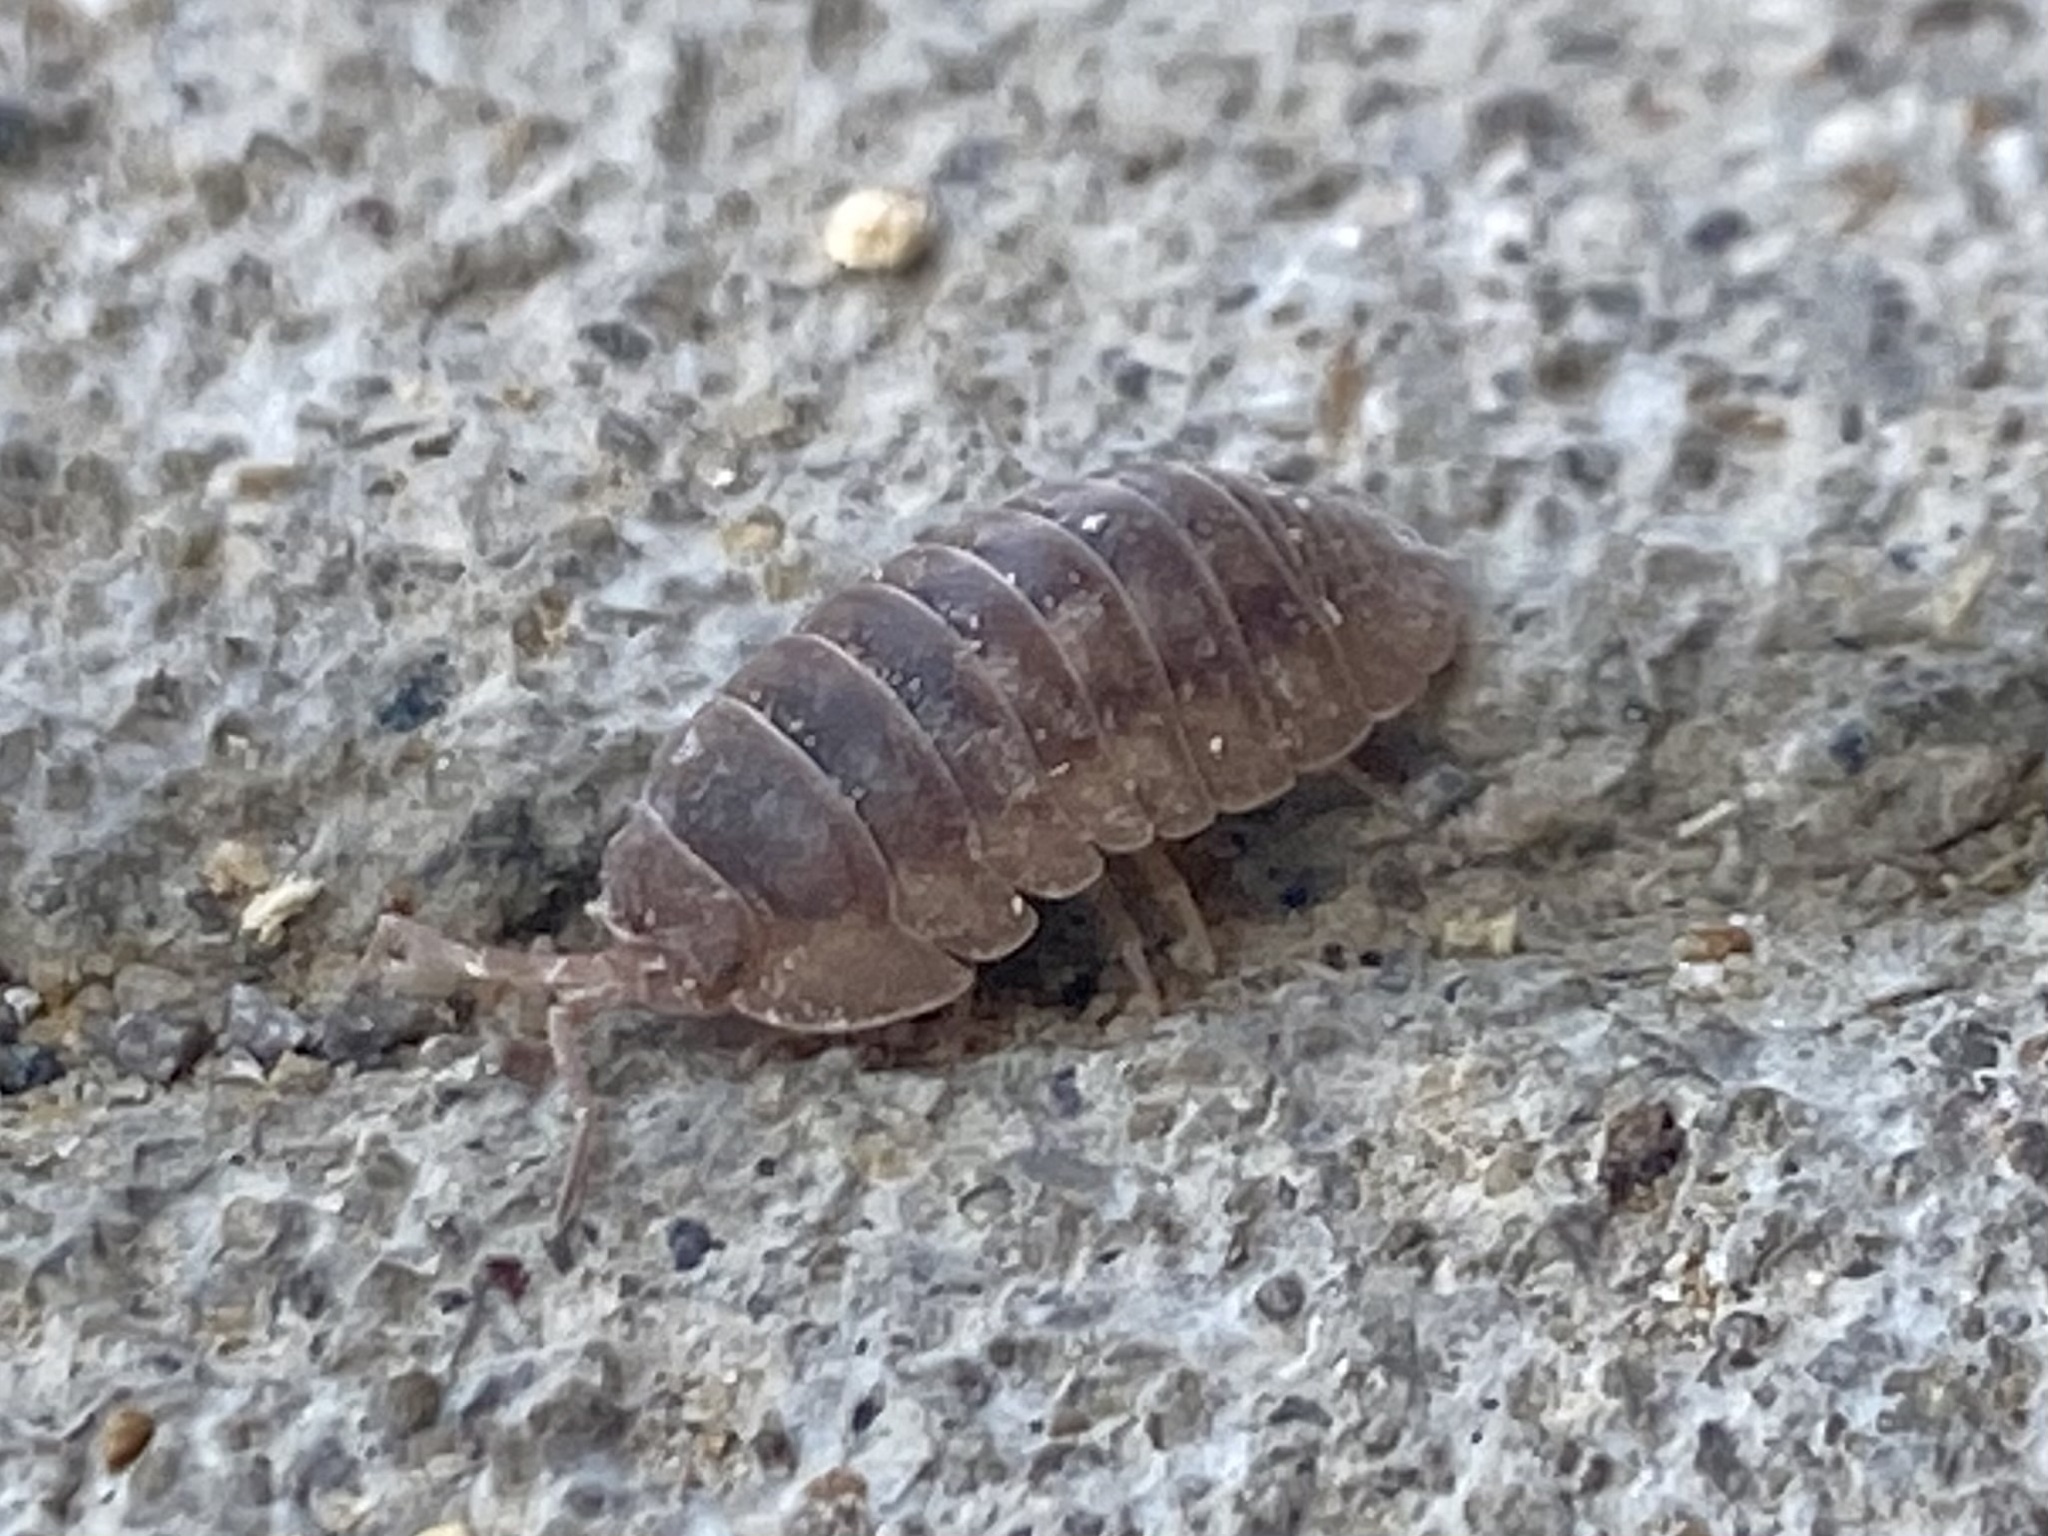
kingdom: Animalia
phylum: Arthropoda
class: Malacostraca
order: Isopoda
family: Armadillidiidae
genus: Armadillidium
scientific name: Armadillidium nasatum
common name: Isopod
